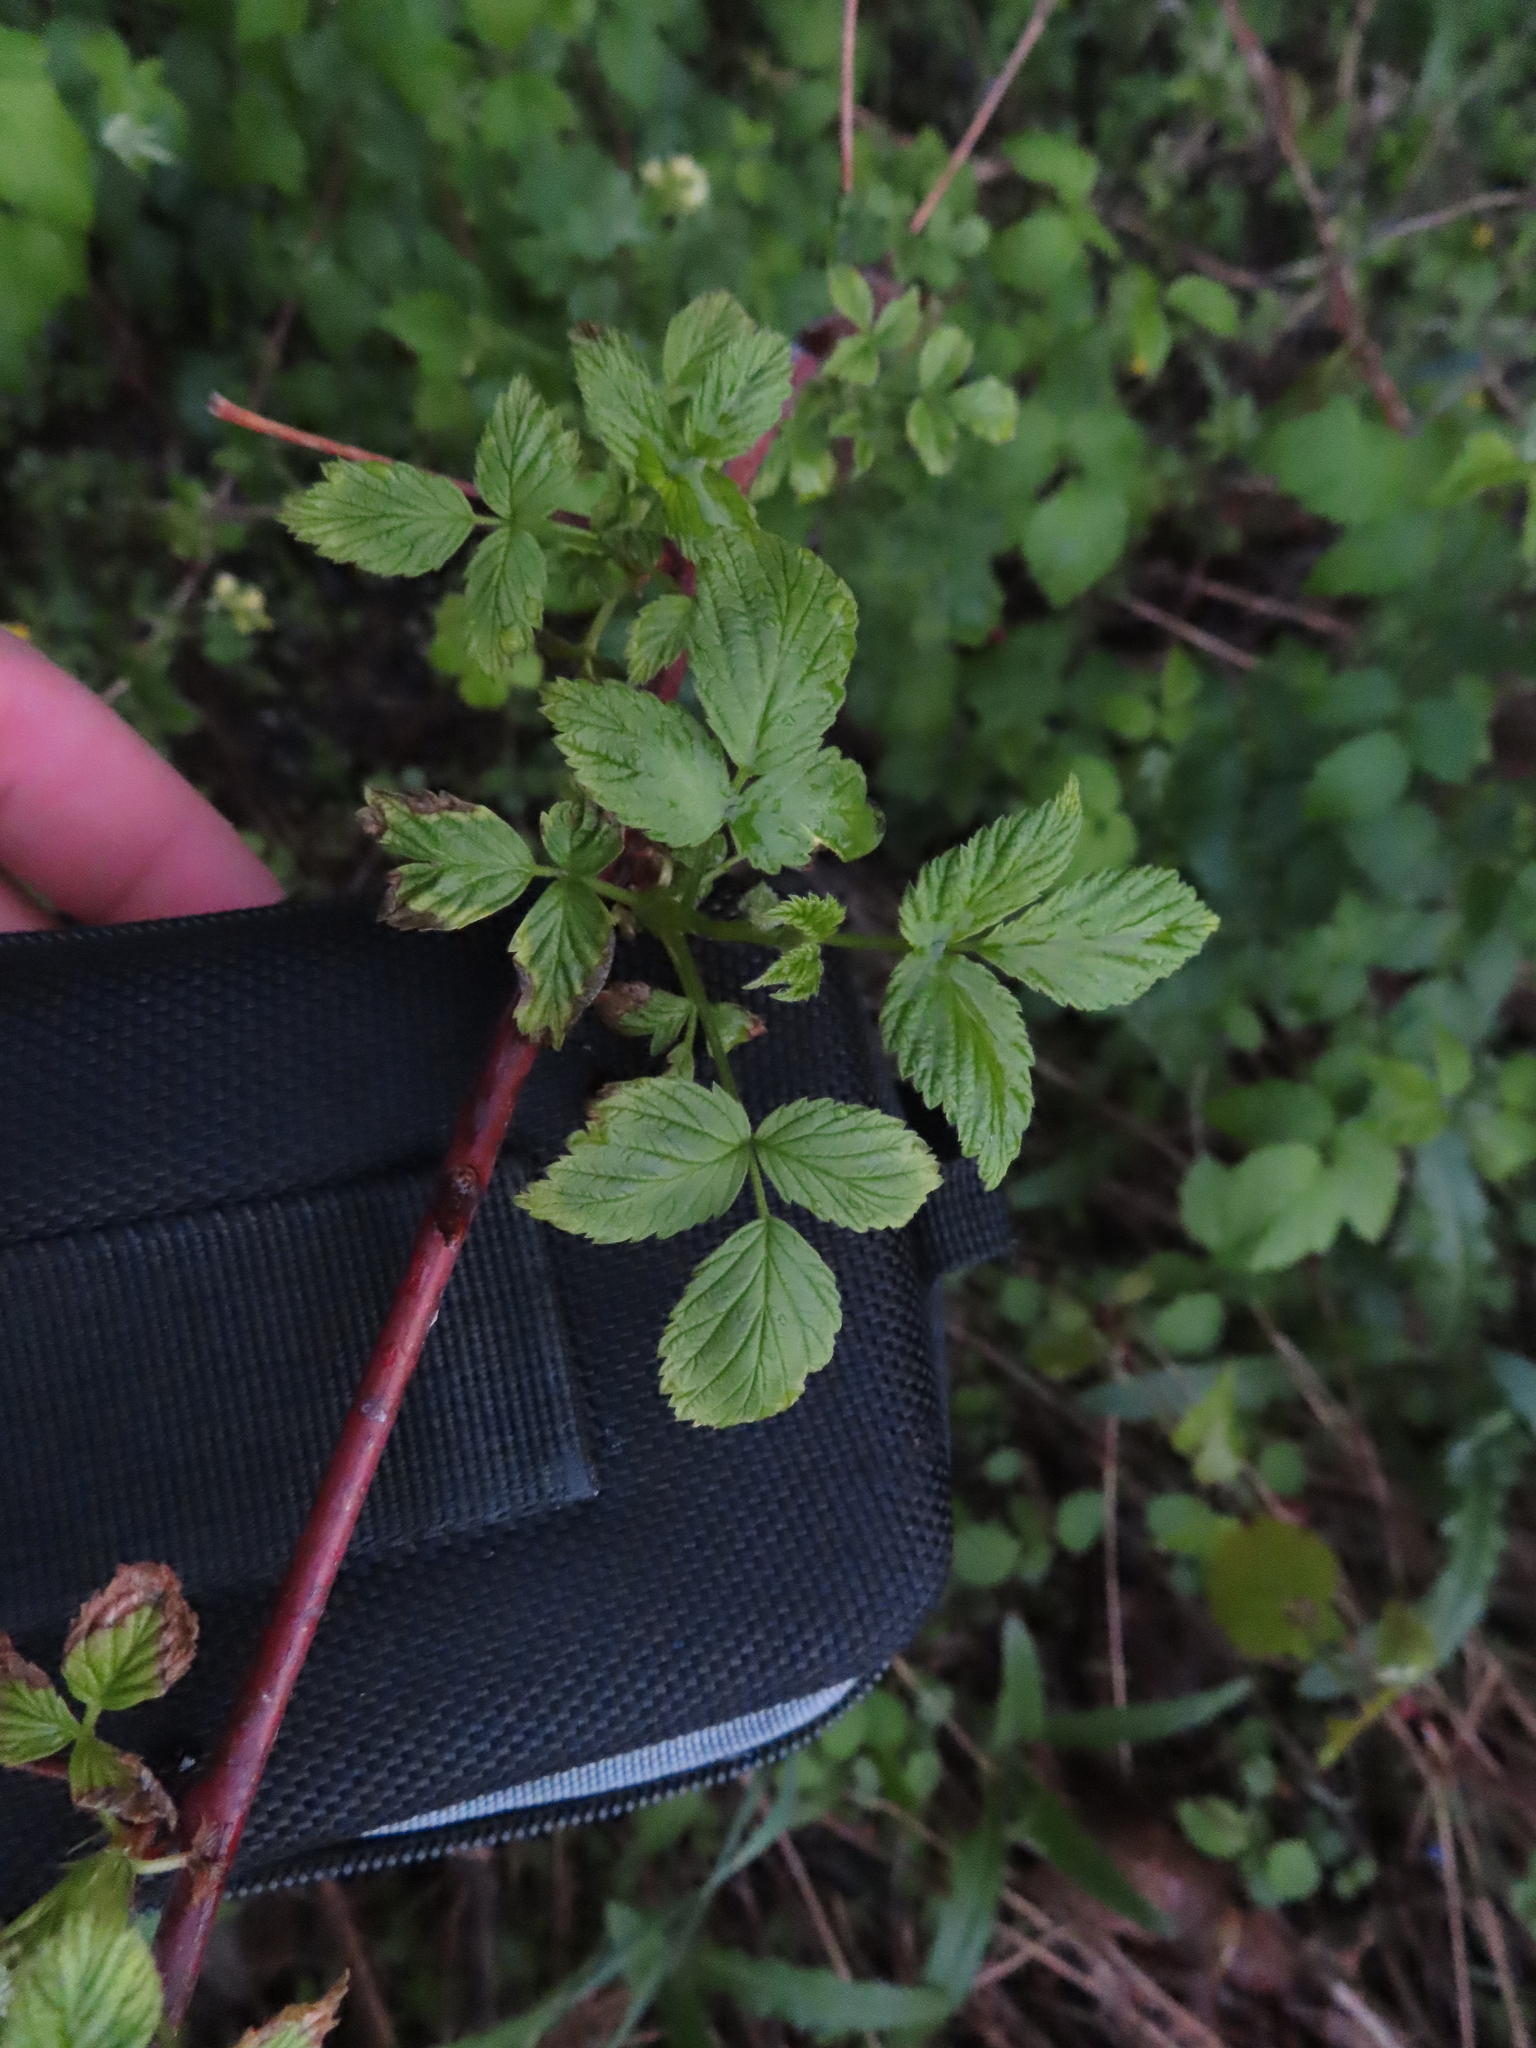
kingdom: Plantae
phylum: Tracheophyta
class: Magnoliopsida
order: Rosales
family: Rosaceae
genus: Rubus
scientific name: Rubus occidentalis
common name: Black raspberry
